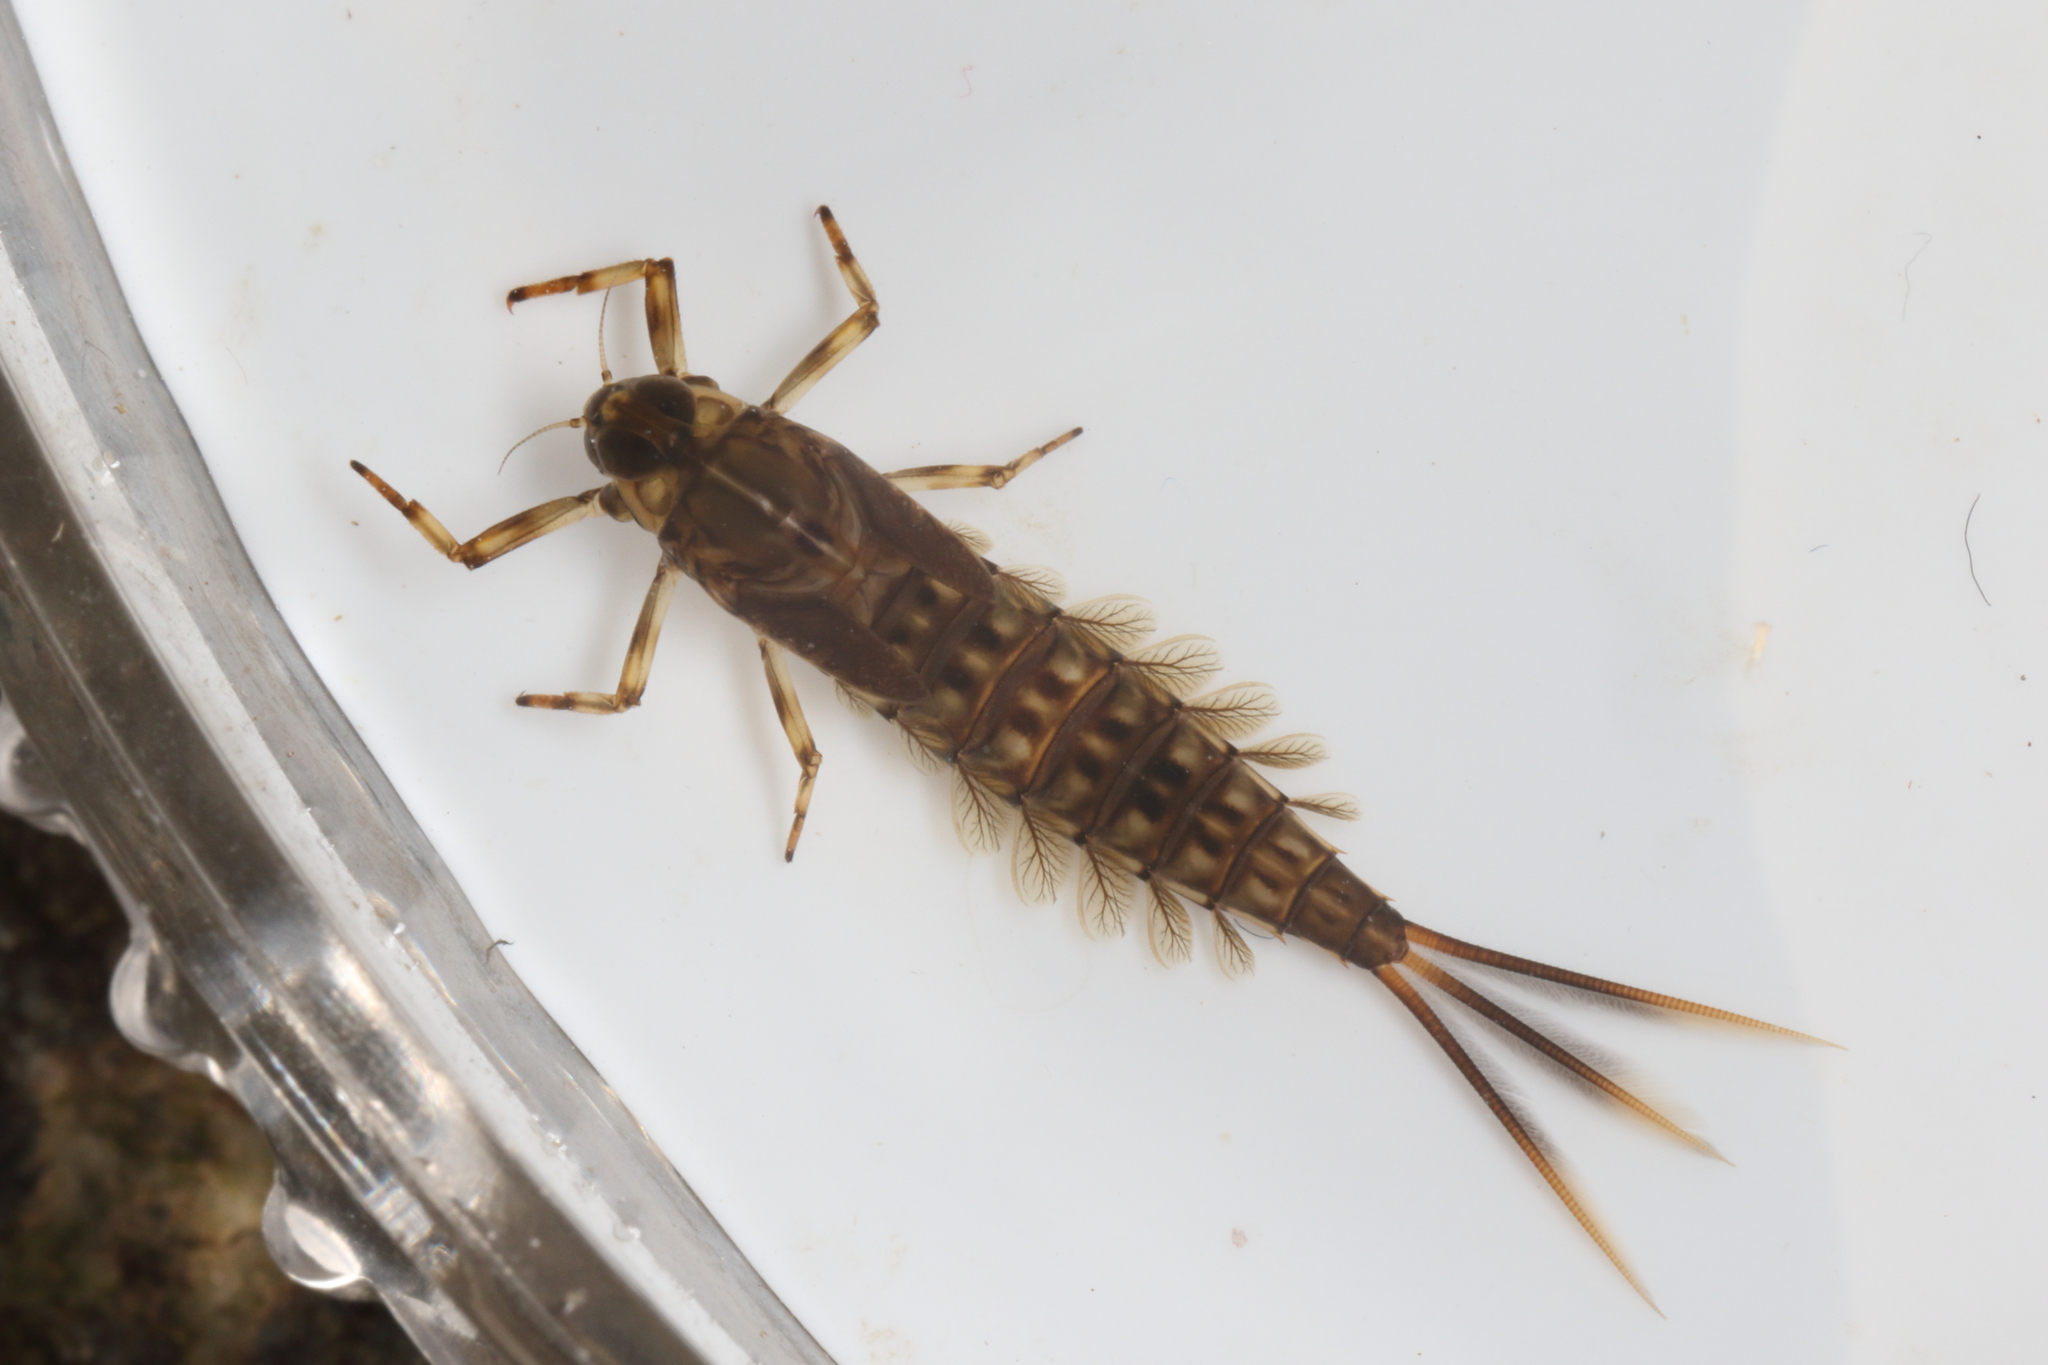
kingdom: Animalia
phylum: Arthropoda
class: Insecta
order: Ephemeroptera
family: Nesameletidae
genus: Nesameletus
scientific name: Nesameletus ornatus
